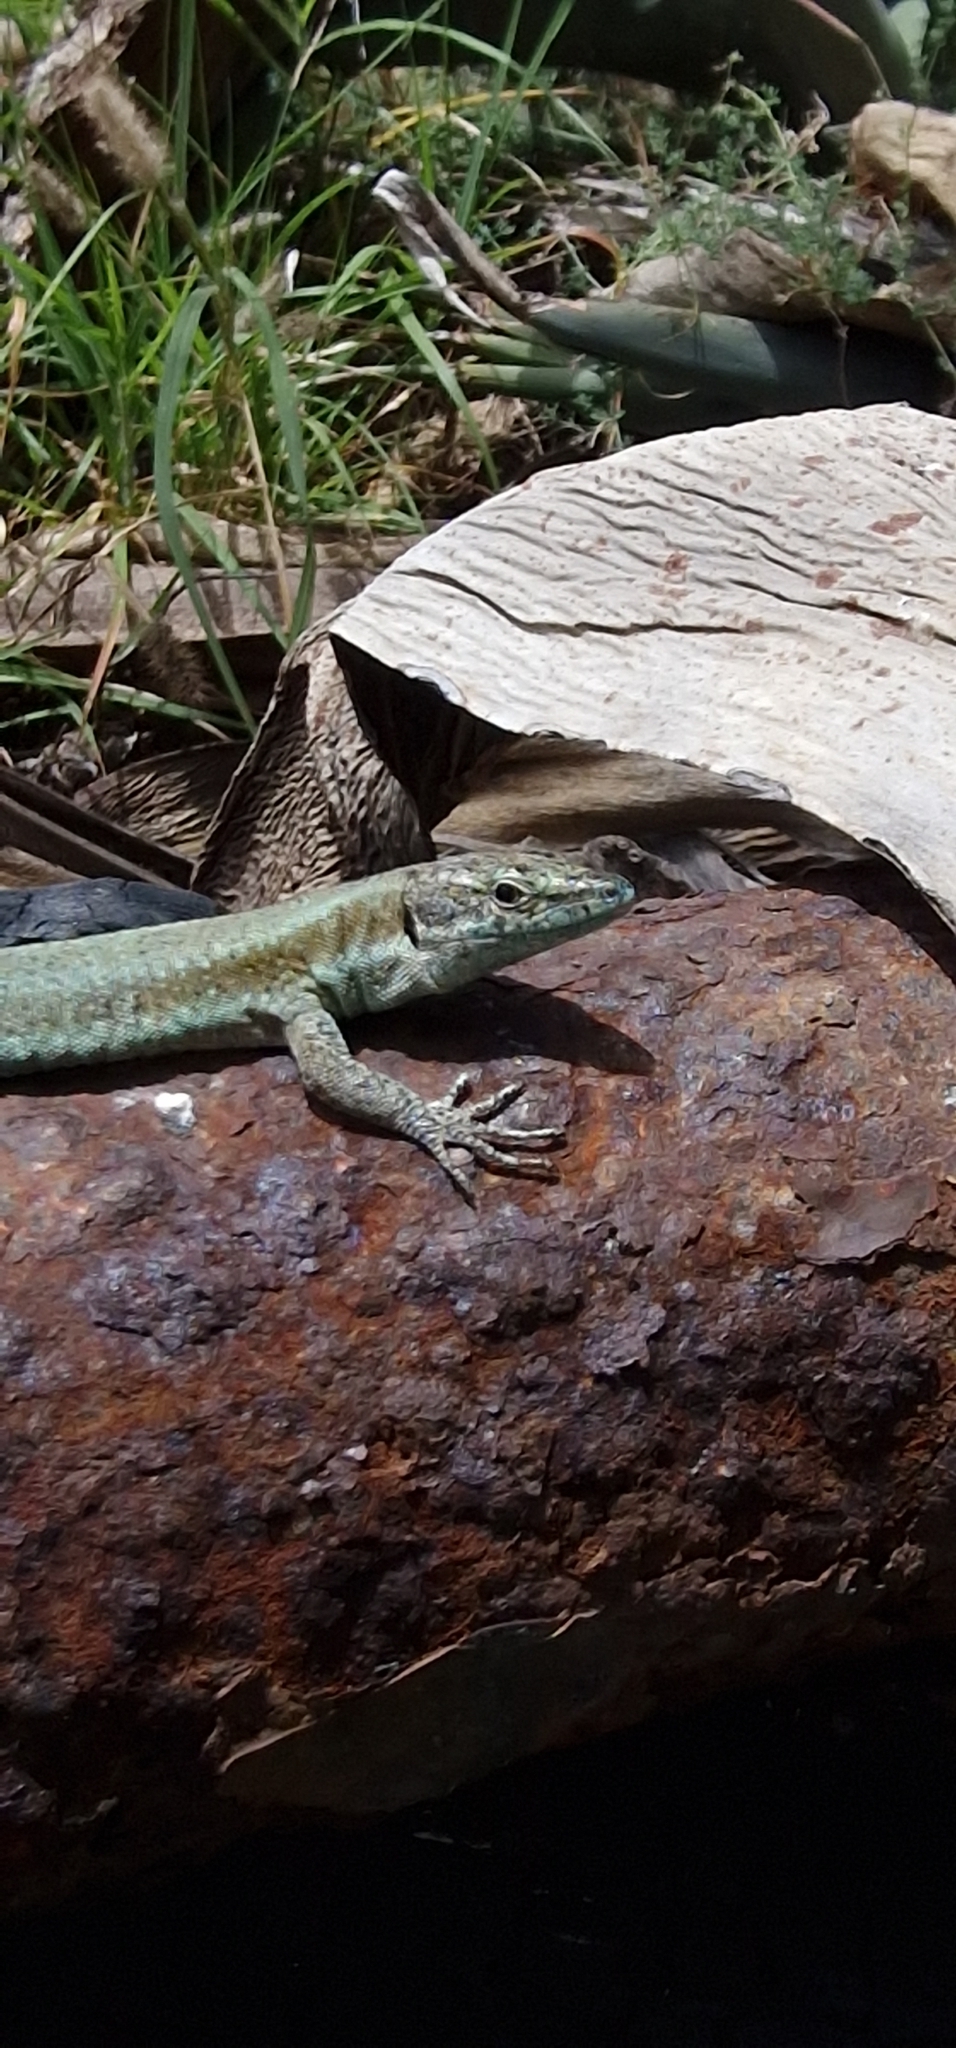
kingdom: Animalia
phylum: Chordata
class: Squamata
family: Lacertidae
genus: Teira
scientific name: Teira dugesii
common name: Madeira lizard
